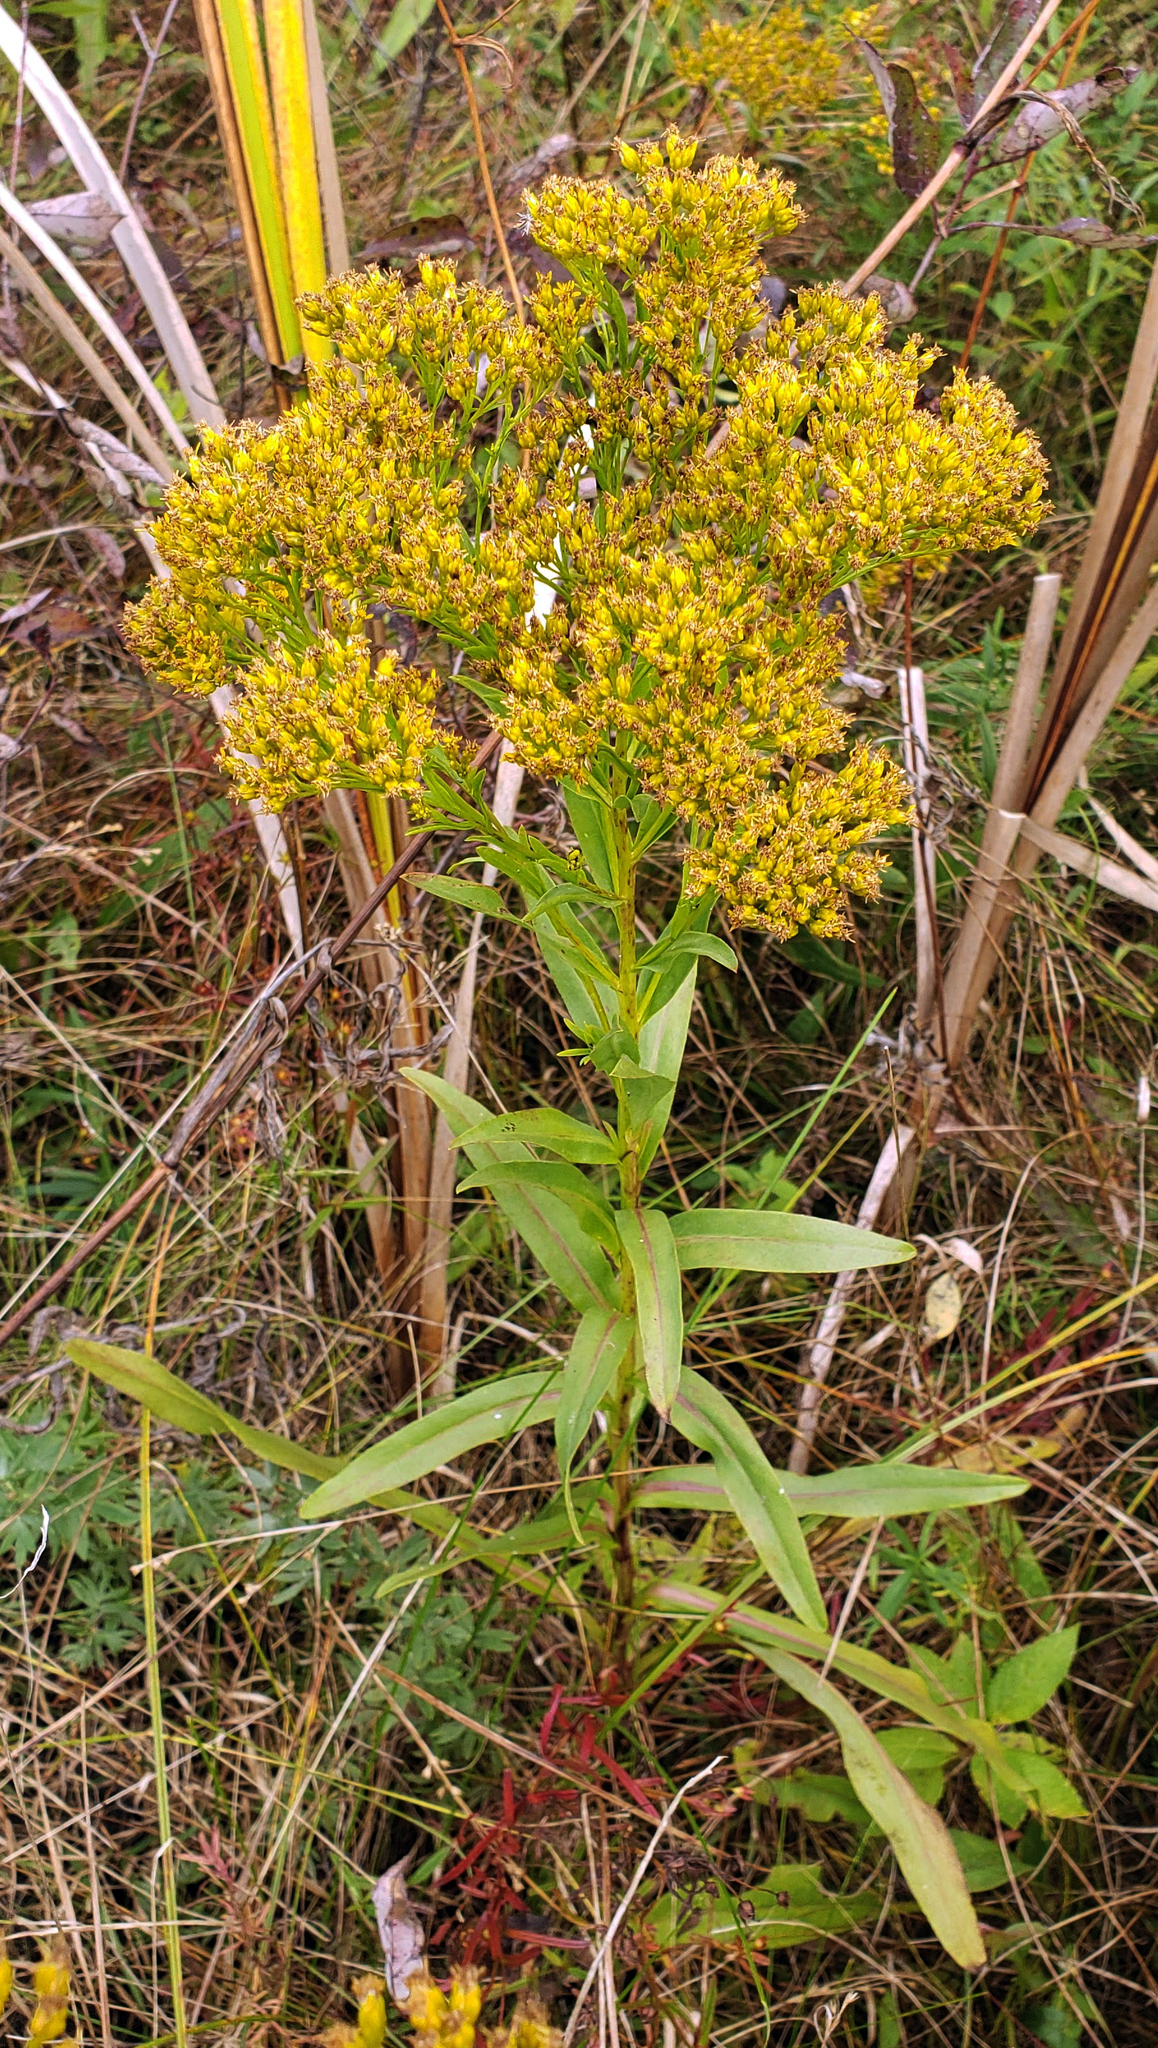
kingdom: Plantae
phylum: Tracheophyta
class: Magnoliopsida
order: Asterales
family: Asteraceae
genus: Solidago
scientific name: Solidago ohioensis
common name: Ohio goldenrod
